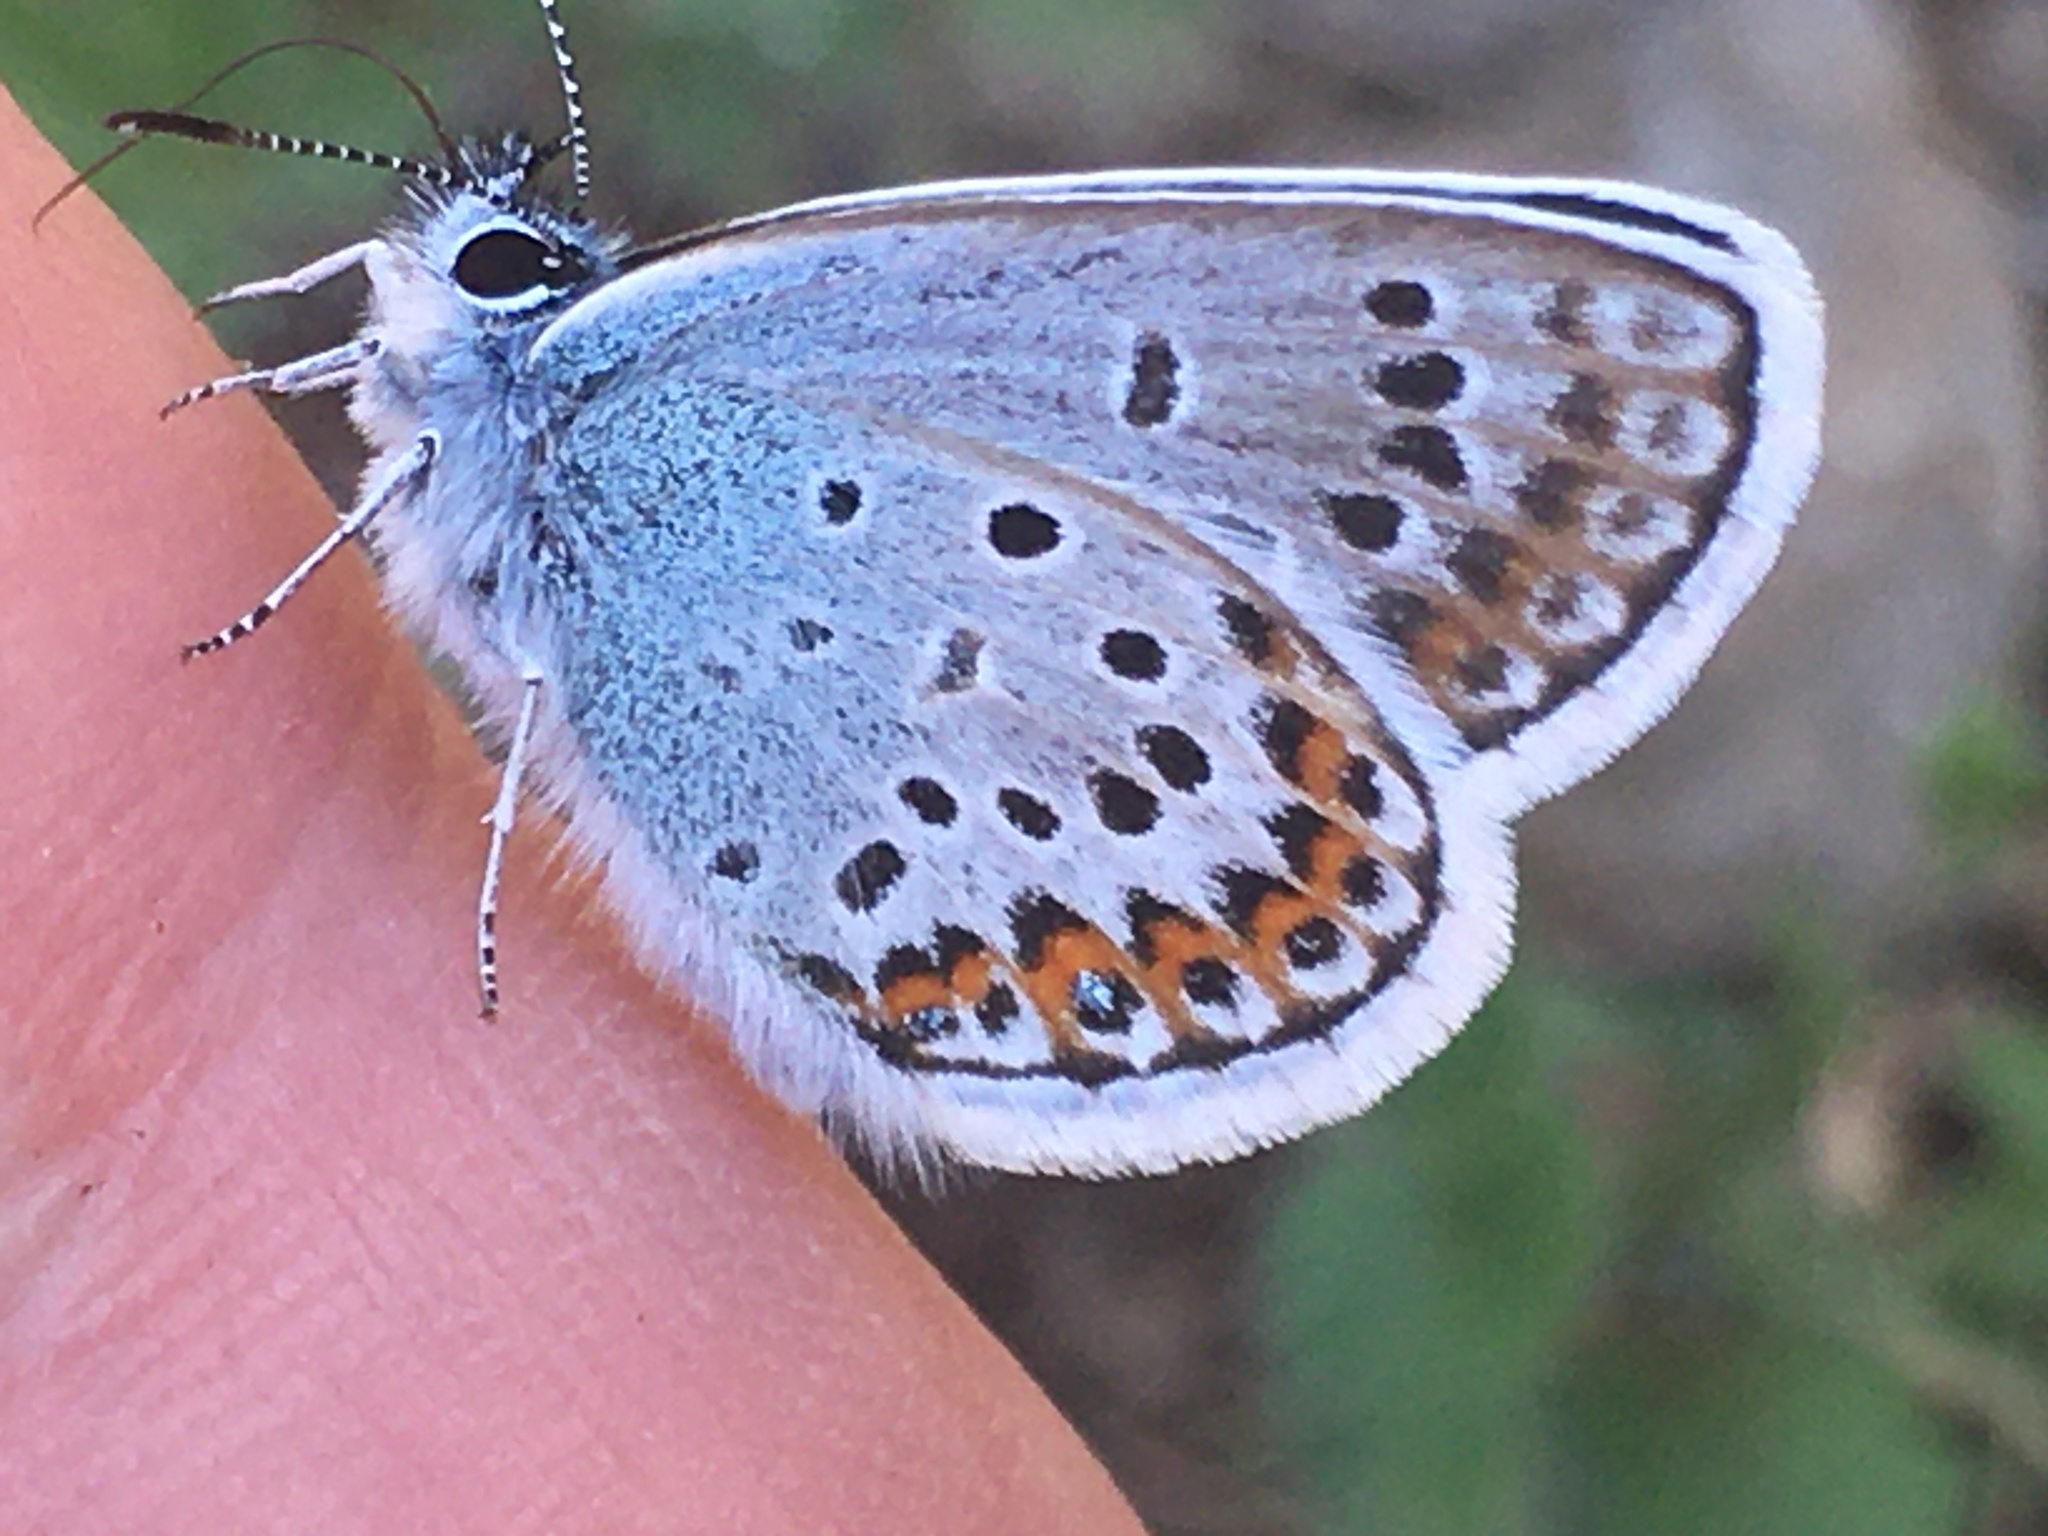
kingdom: Animalia
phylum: Arthropoda
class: Insecta
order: Lepidoptera
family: Lycaenidae
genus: Plebejus
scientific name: Plebejus argus
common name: Silver-studded blue
